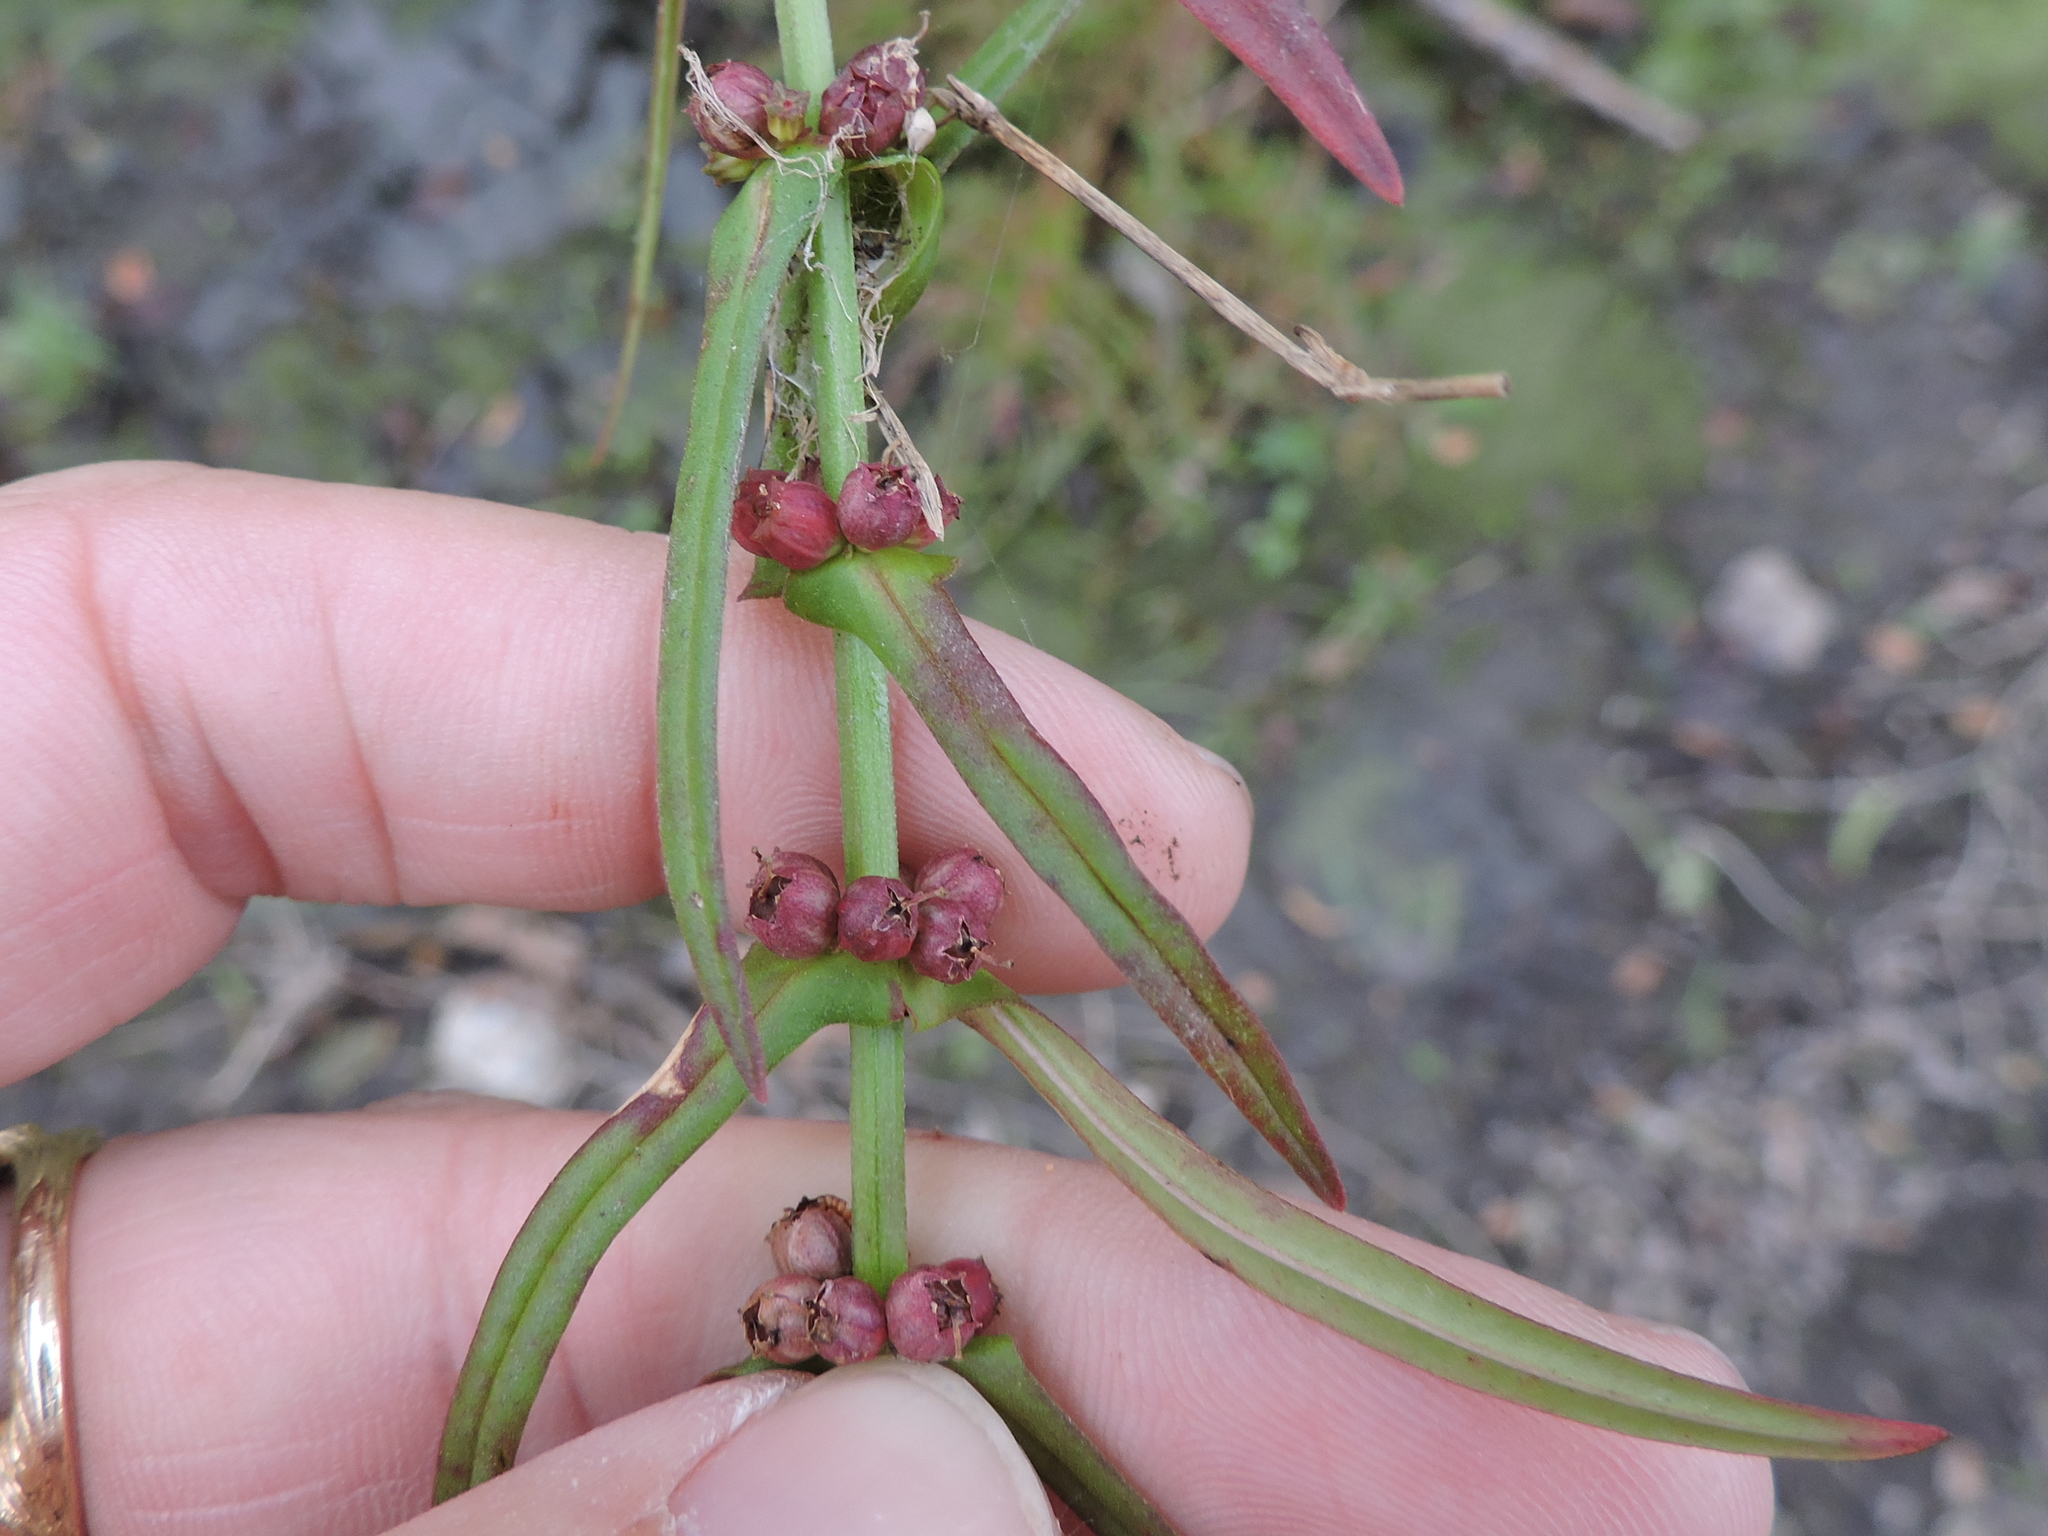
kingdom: Plantae
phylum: Tracheophyta
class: Magnoliopsida
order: Myrtales
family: Lythraceae
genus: Ammannia
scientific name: Ammannia coccinea
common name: Valley redstem
